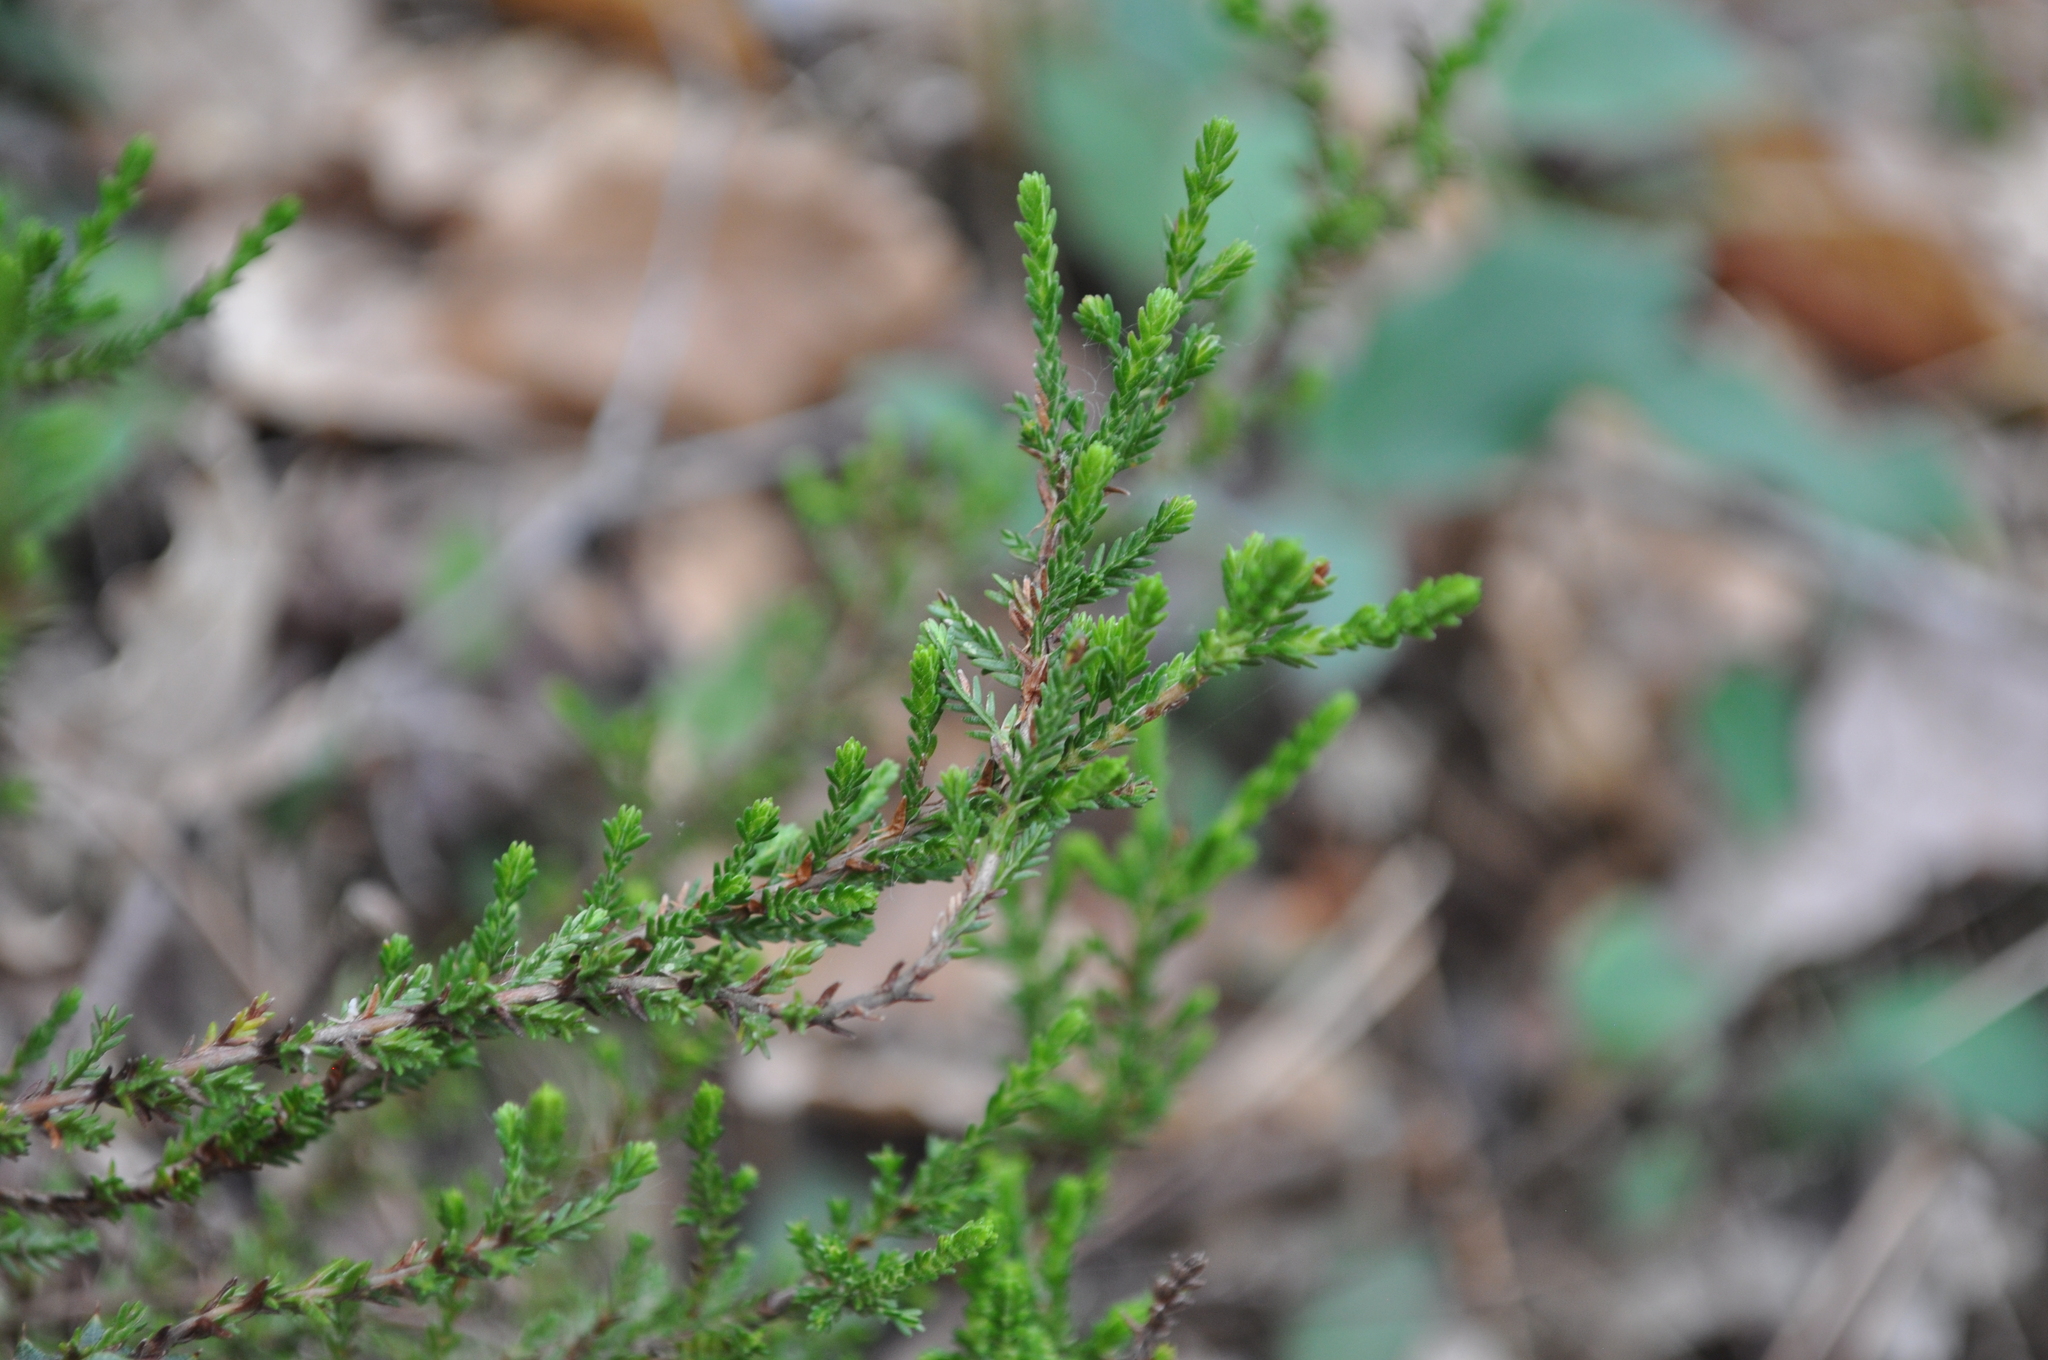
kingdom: Plantae
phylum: Tracheophyta
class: Magnoliopsida
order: Ericales
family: Ericaceae
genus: Calluna
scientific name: Calluna vulgaris
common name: Heather
